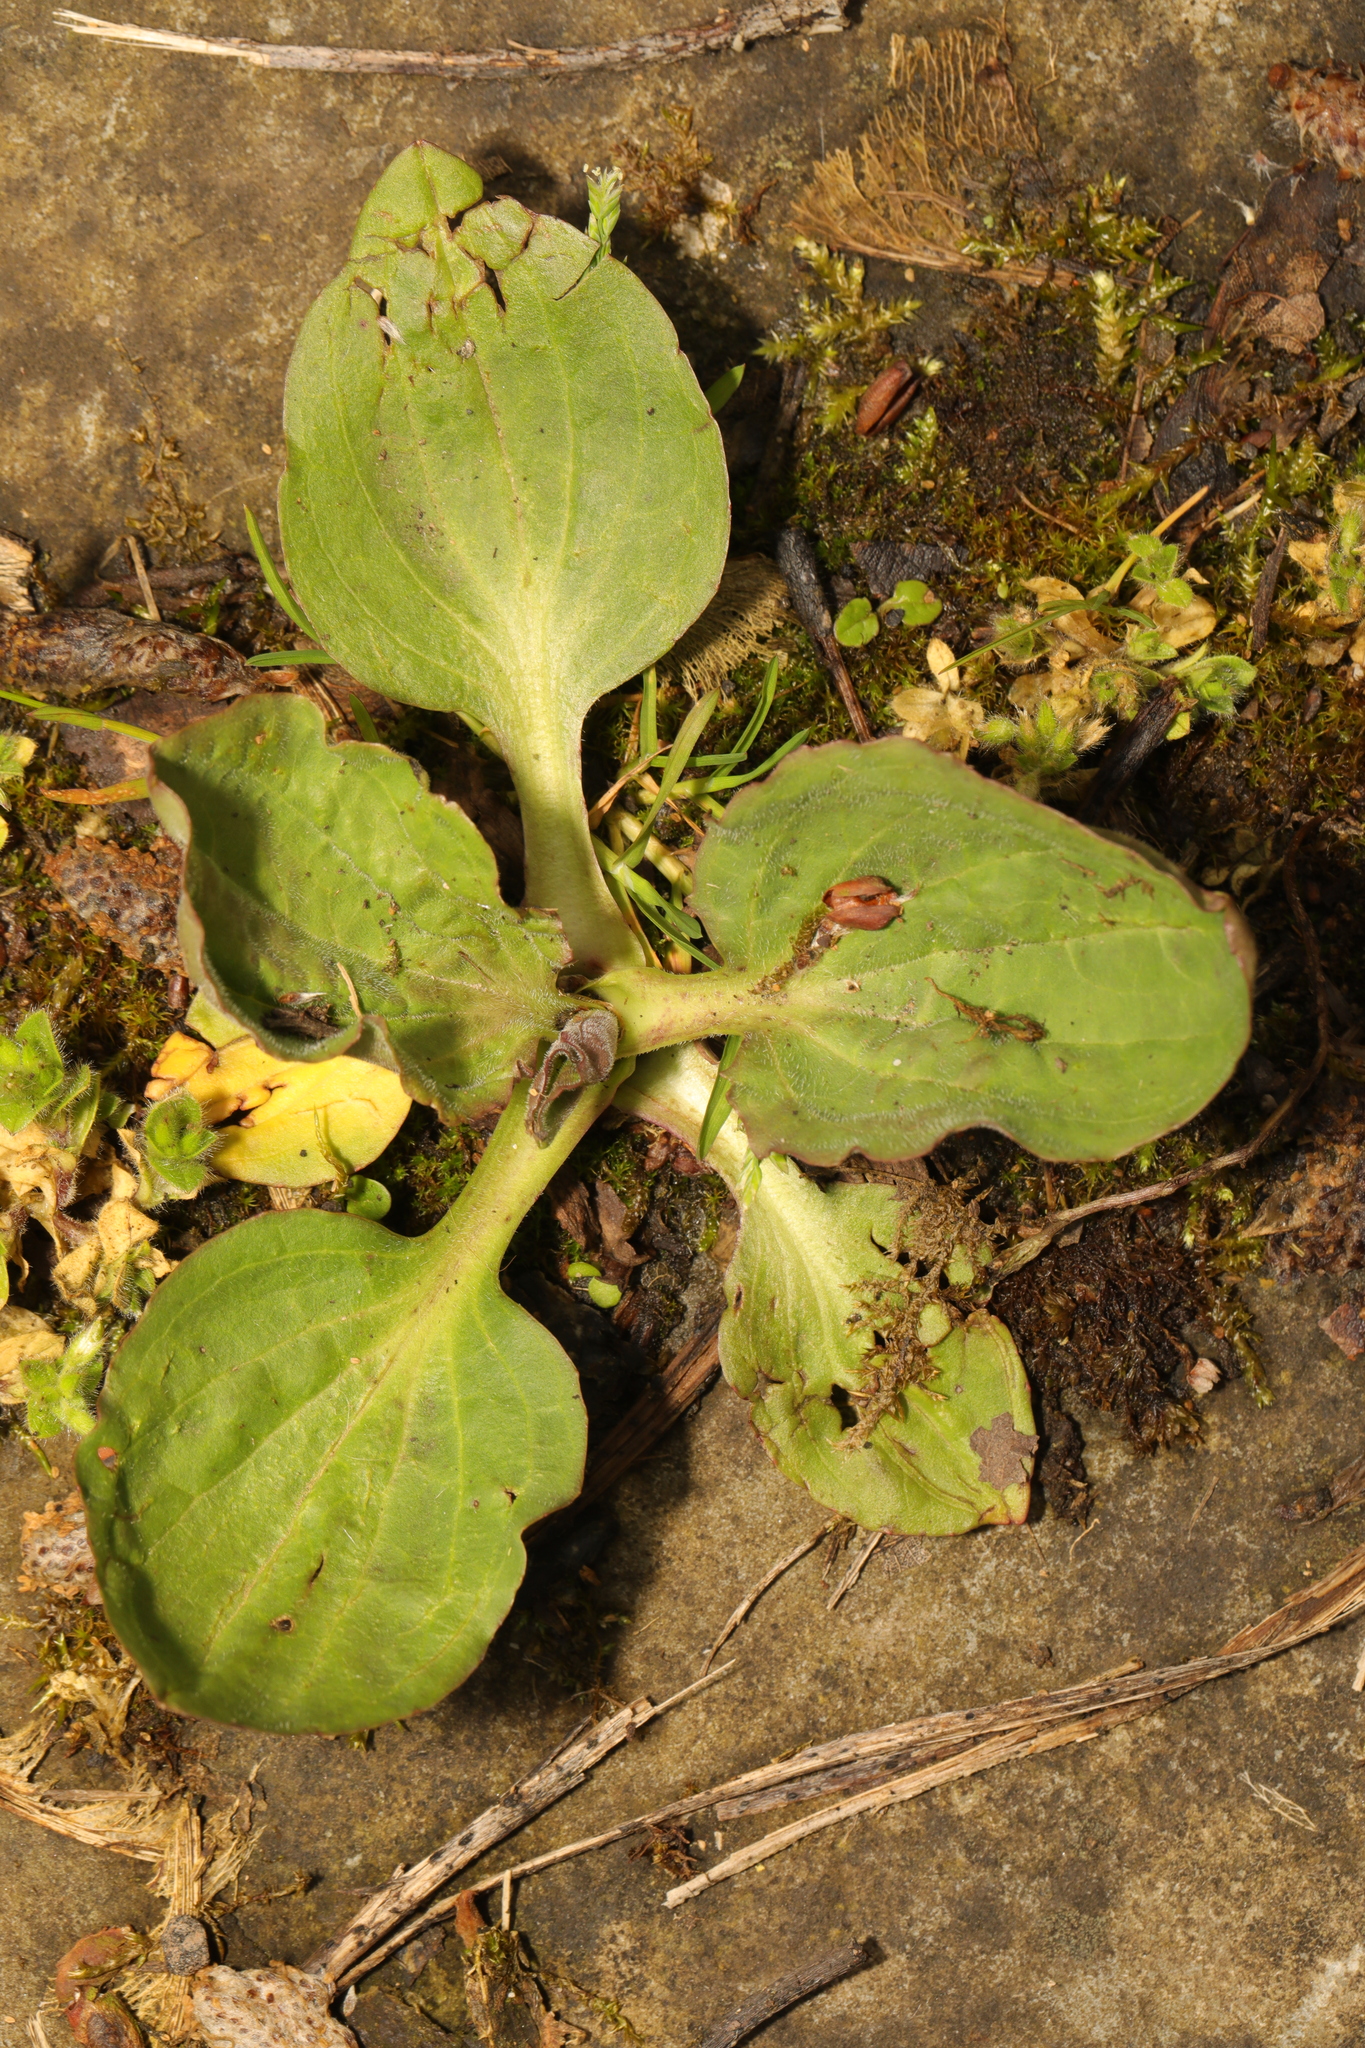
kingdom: Plantae
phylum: Tracheophyta
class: Magnoliopsida
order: Lamiales
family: Plantaginaceae
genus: Plantago
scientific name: Plantago major
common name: Common plantain
